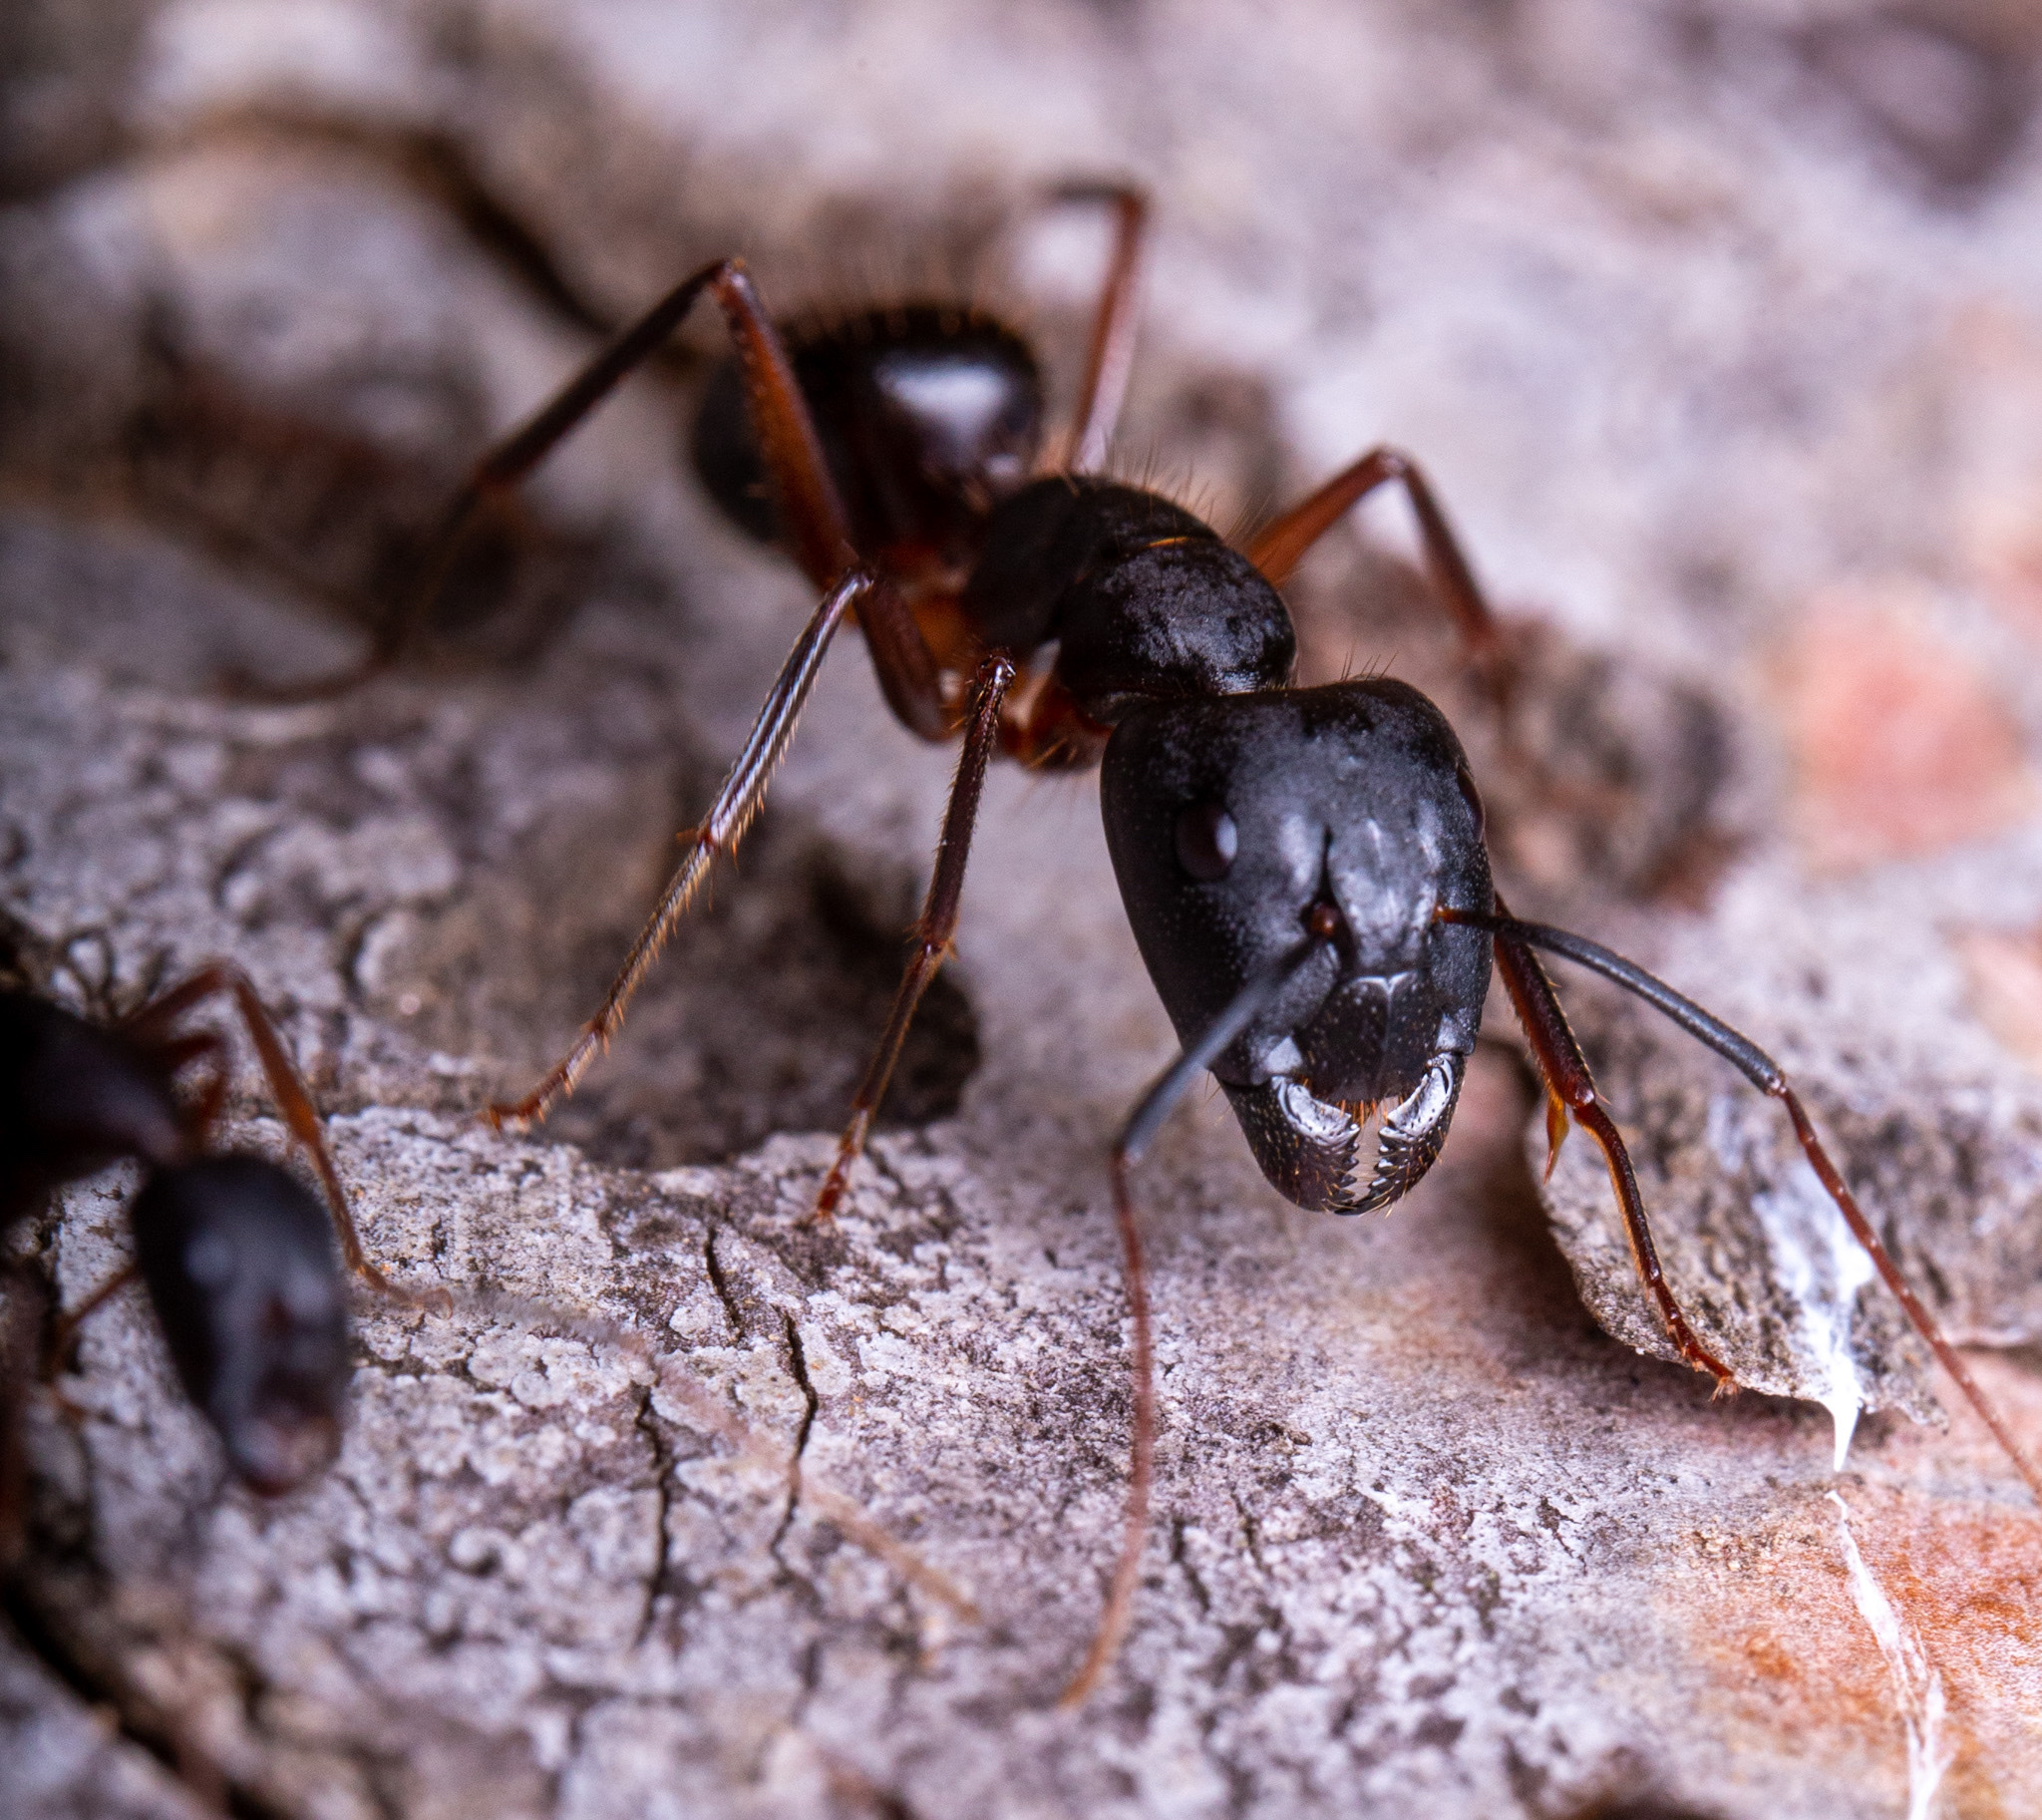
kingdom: Animalia
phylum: Arthropoda
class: Insecta
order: Hymenoptera
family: Formicidae
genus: Camponotus
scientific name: Camponotus ionius
